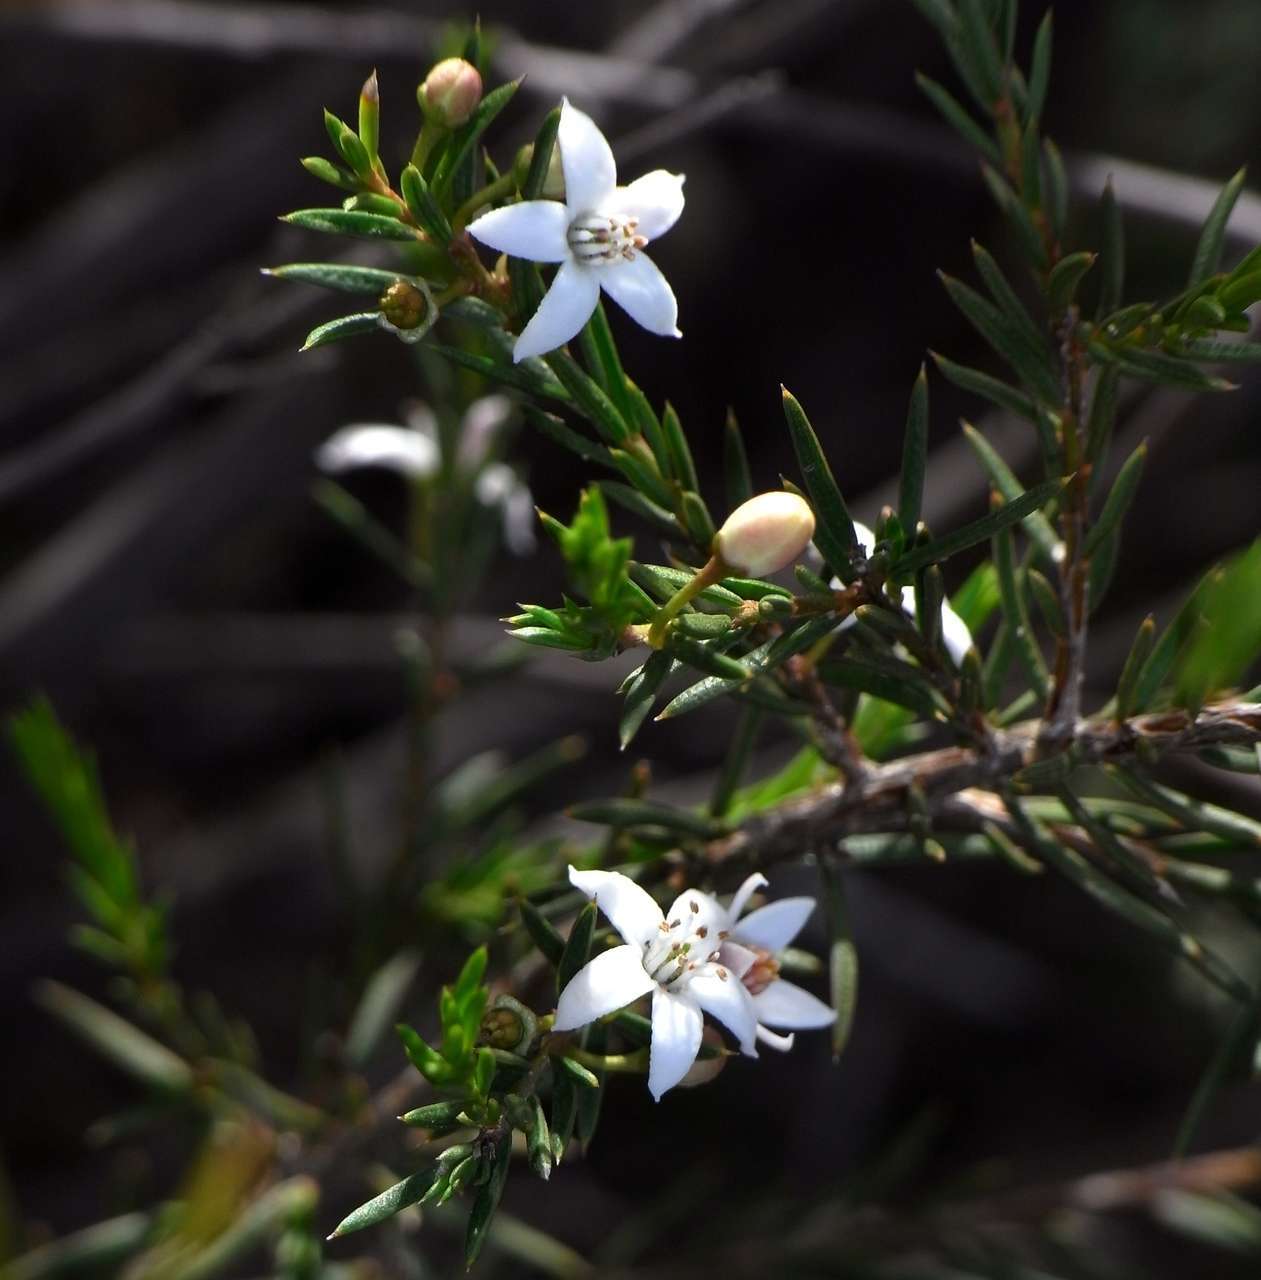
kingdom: Plantae
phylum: Tracheophyta
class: Magnoliopsida
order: Sapindales
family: Rutaceae
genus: Philotheca
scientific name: Philotheca pungens
